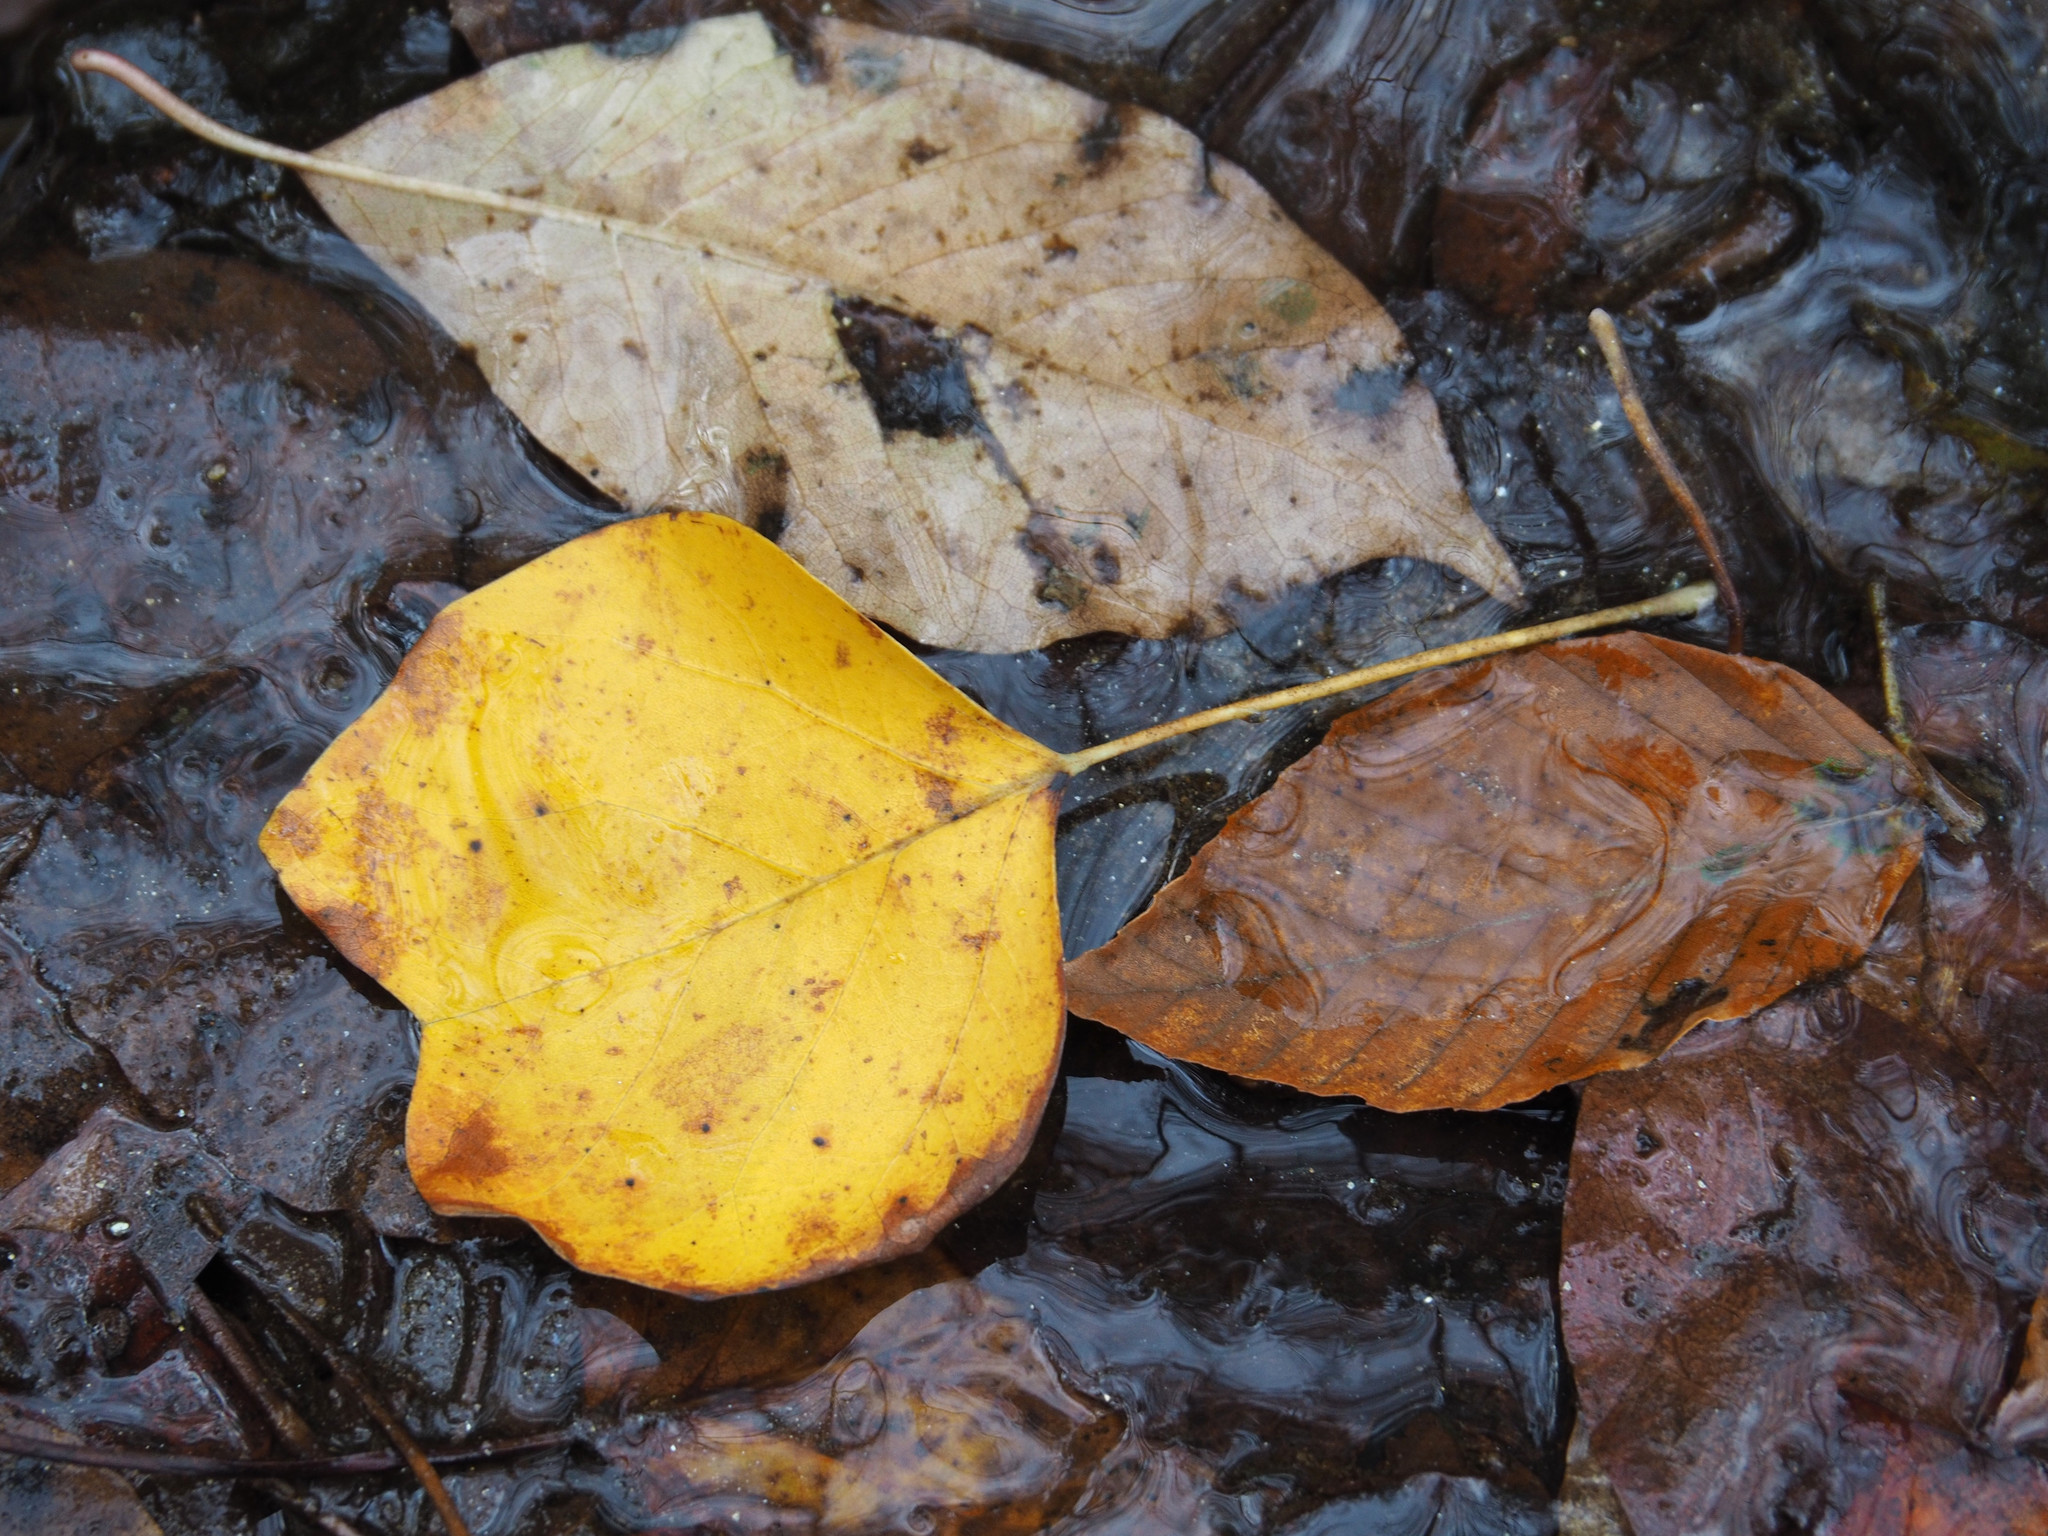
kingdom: Plantae
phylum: Tracheophyta
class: Magnoliopsida
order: Magnoliales
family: Magnoliaceae
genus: Liriodendron
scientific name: Liriodendron tulipifera
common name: Tulip tree
